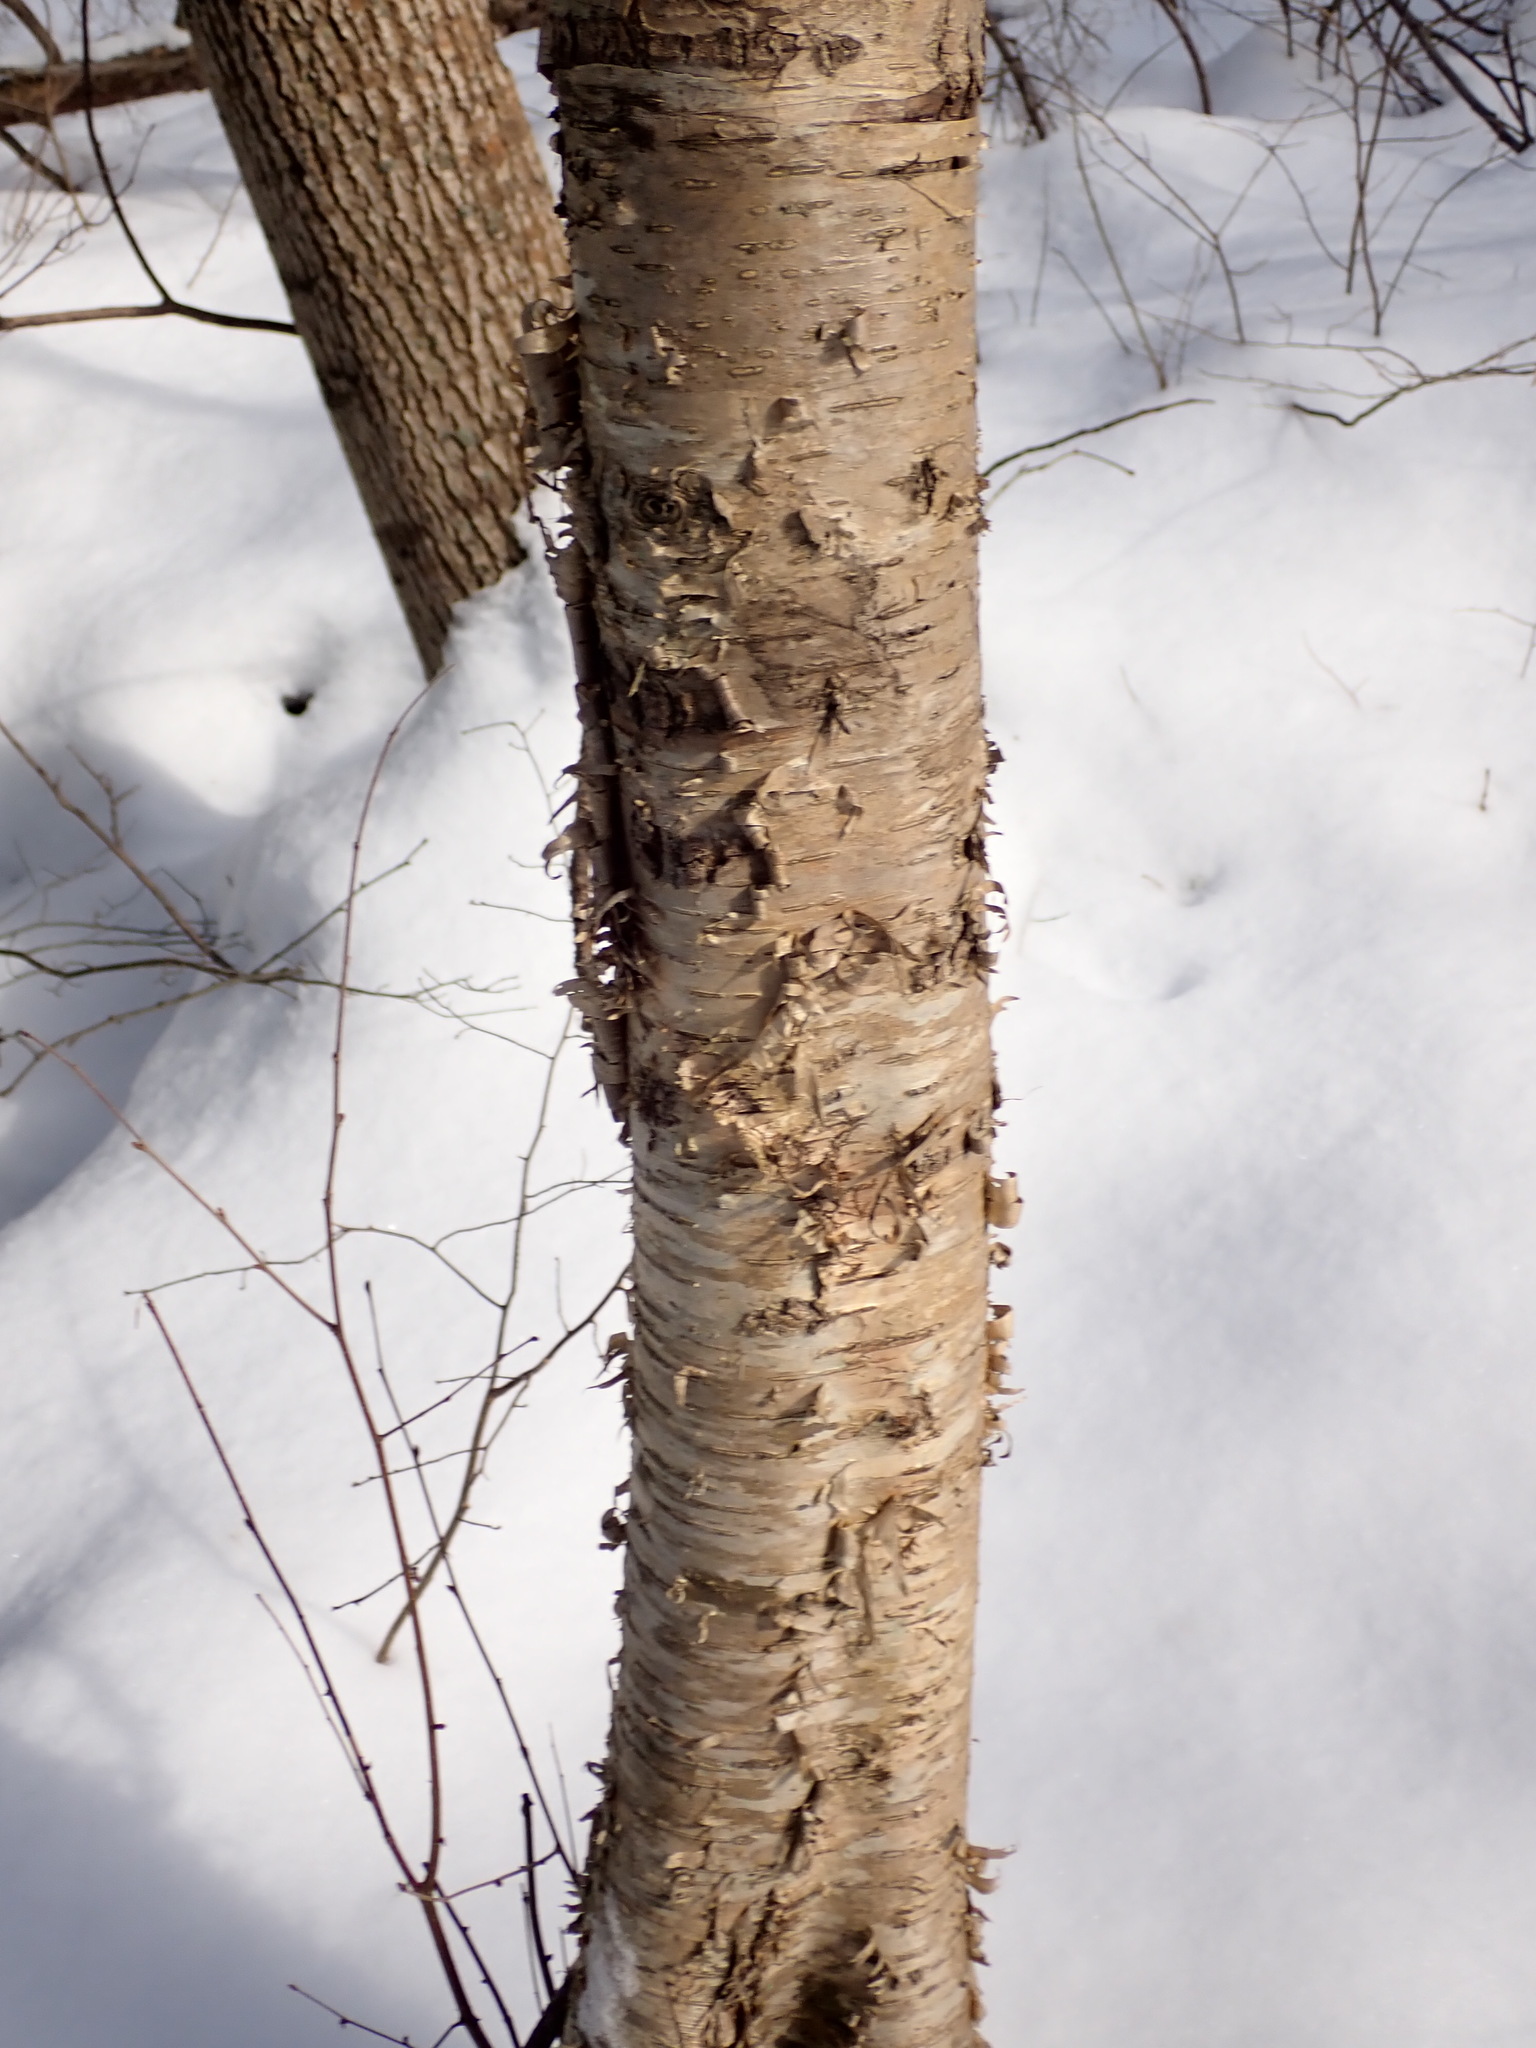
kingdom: Plantae
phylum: Tracheophyta
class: Magnoliopsida
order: Fagales
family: Betulaceae
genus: Betula
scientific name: Betula alleghaniensis
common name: Yellow birch
